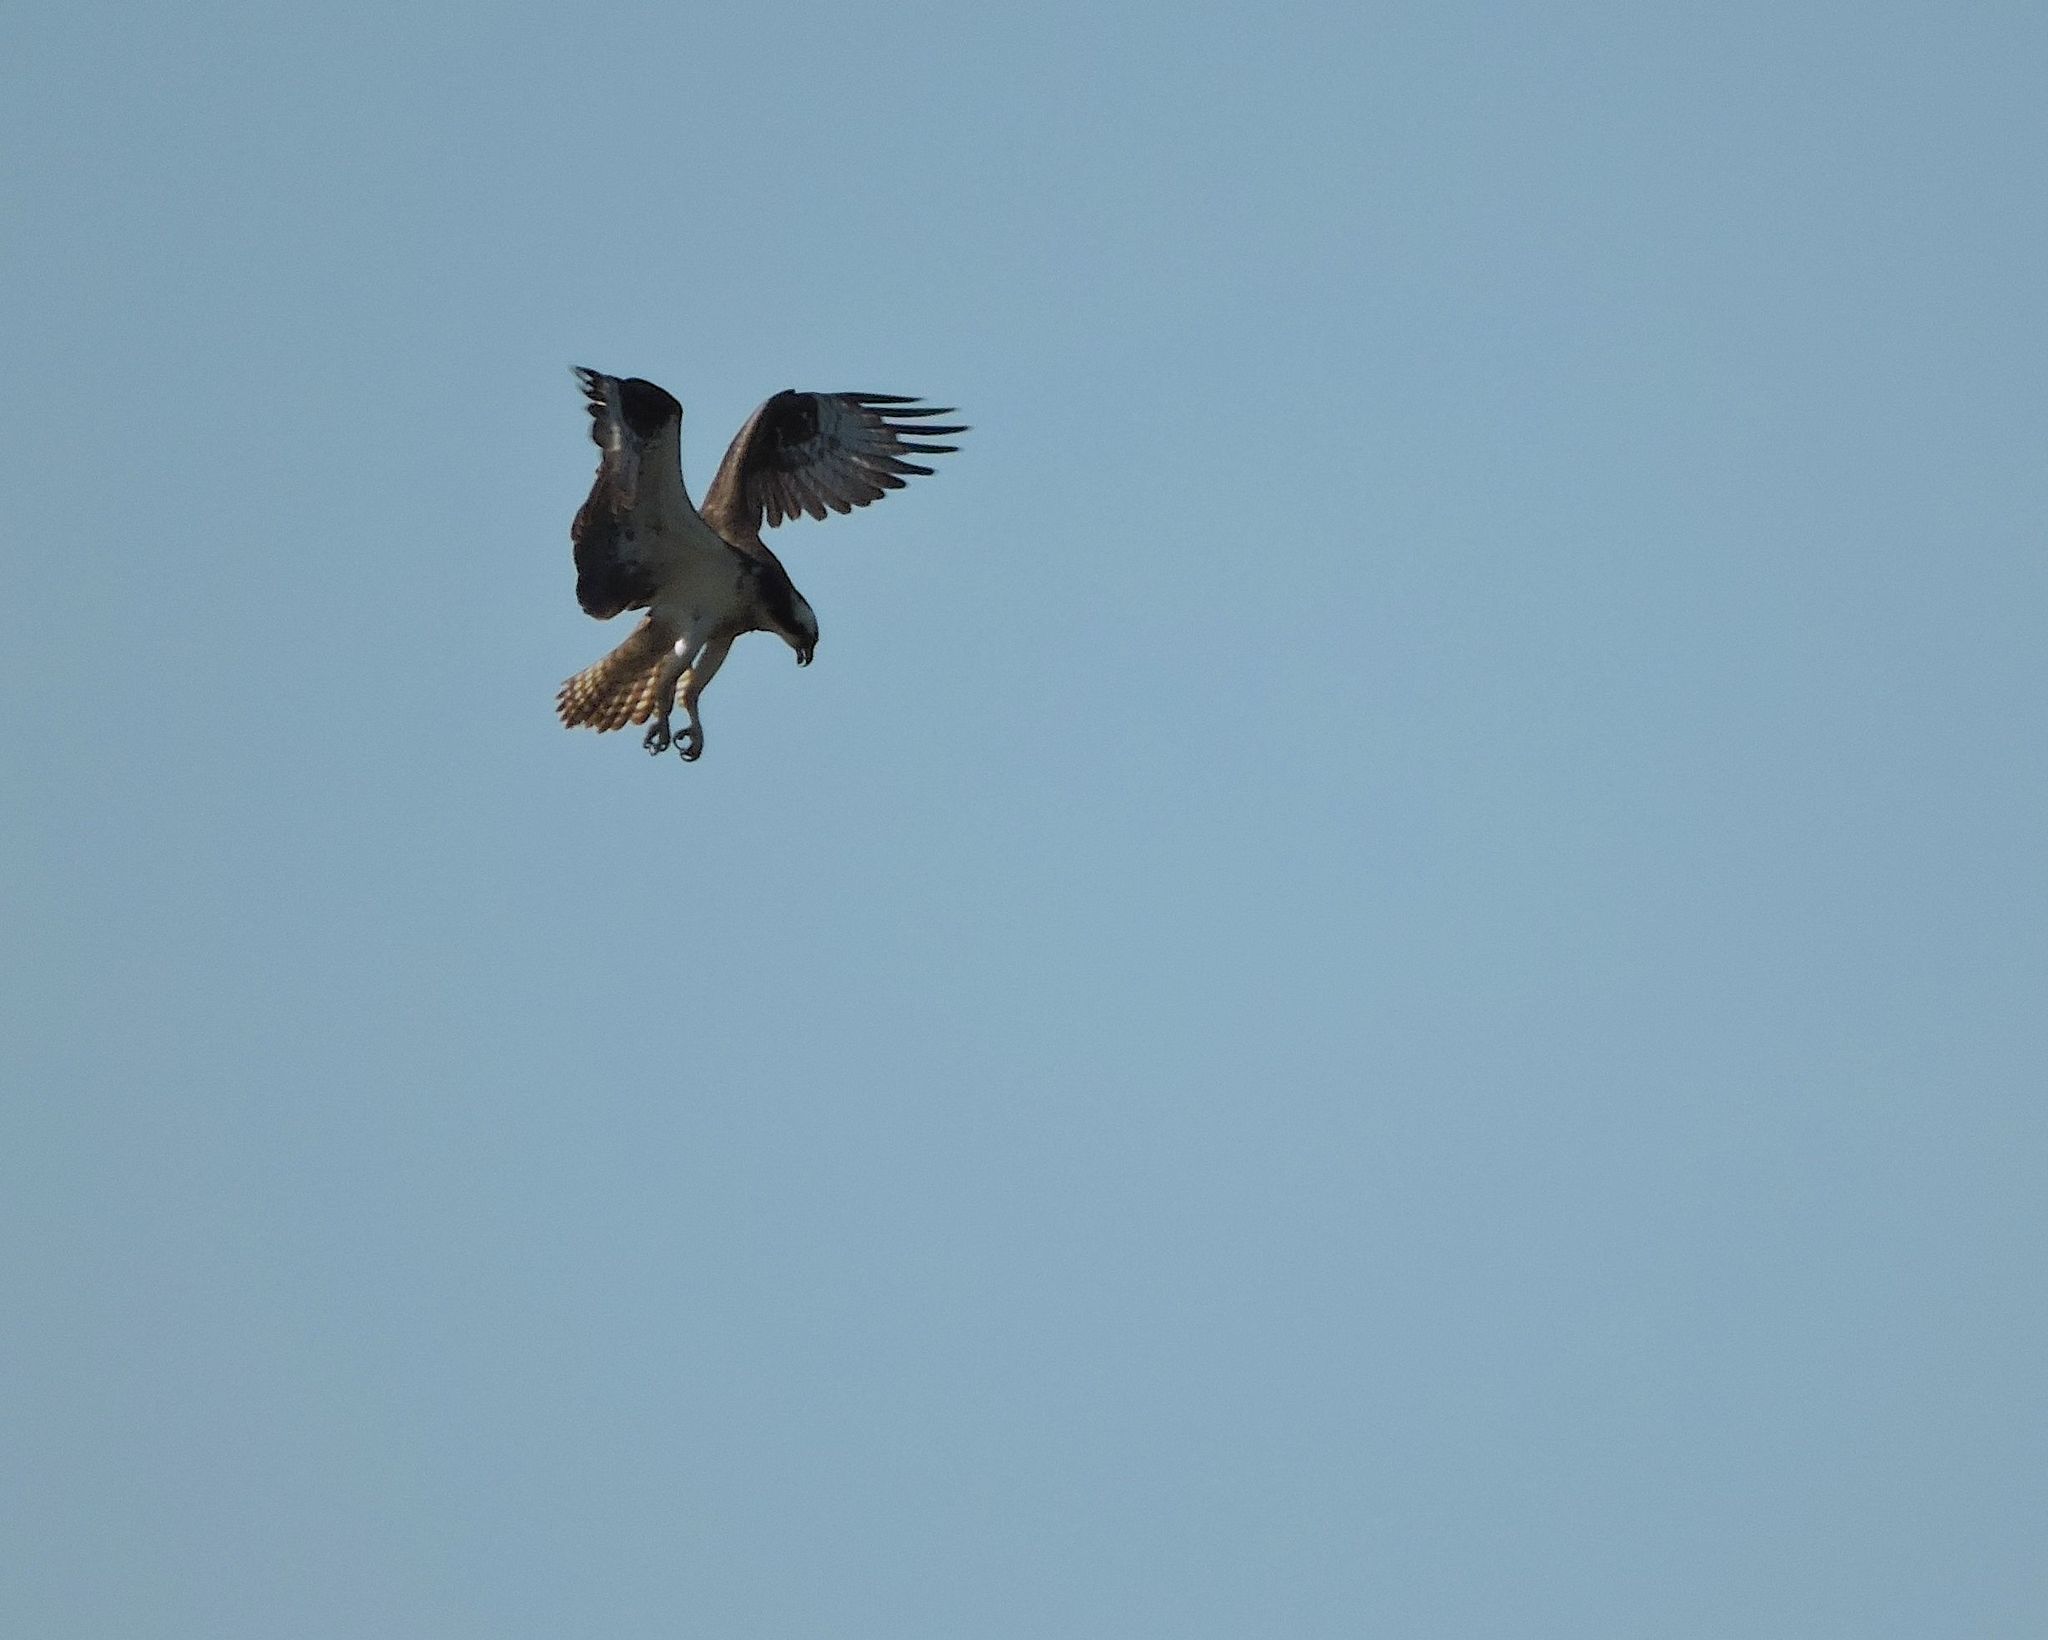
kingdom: Animalia
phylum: Chordata
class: Aves
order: Accipitriformes
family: Pandionidae
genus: Pandion
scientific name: Pandion haliaetus
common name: Osprey
